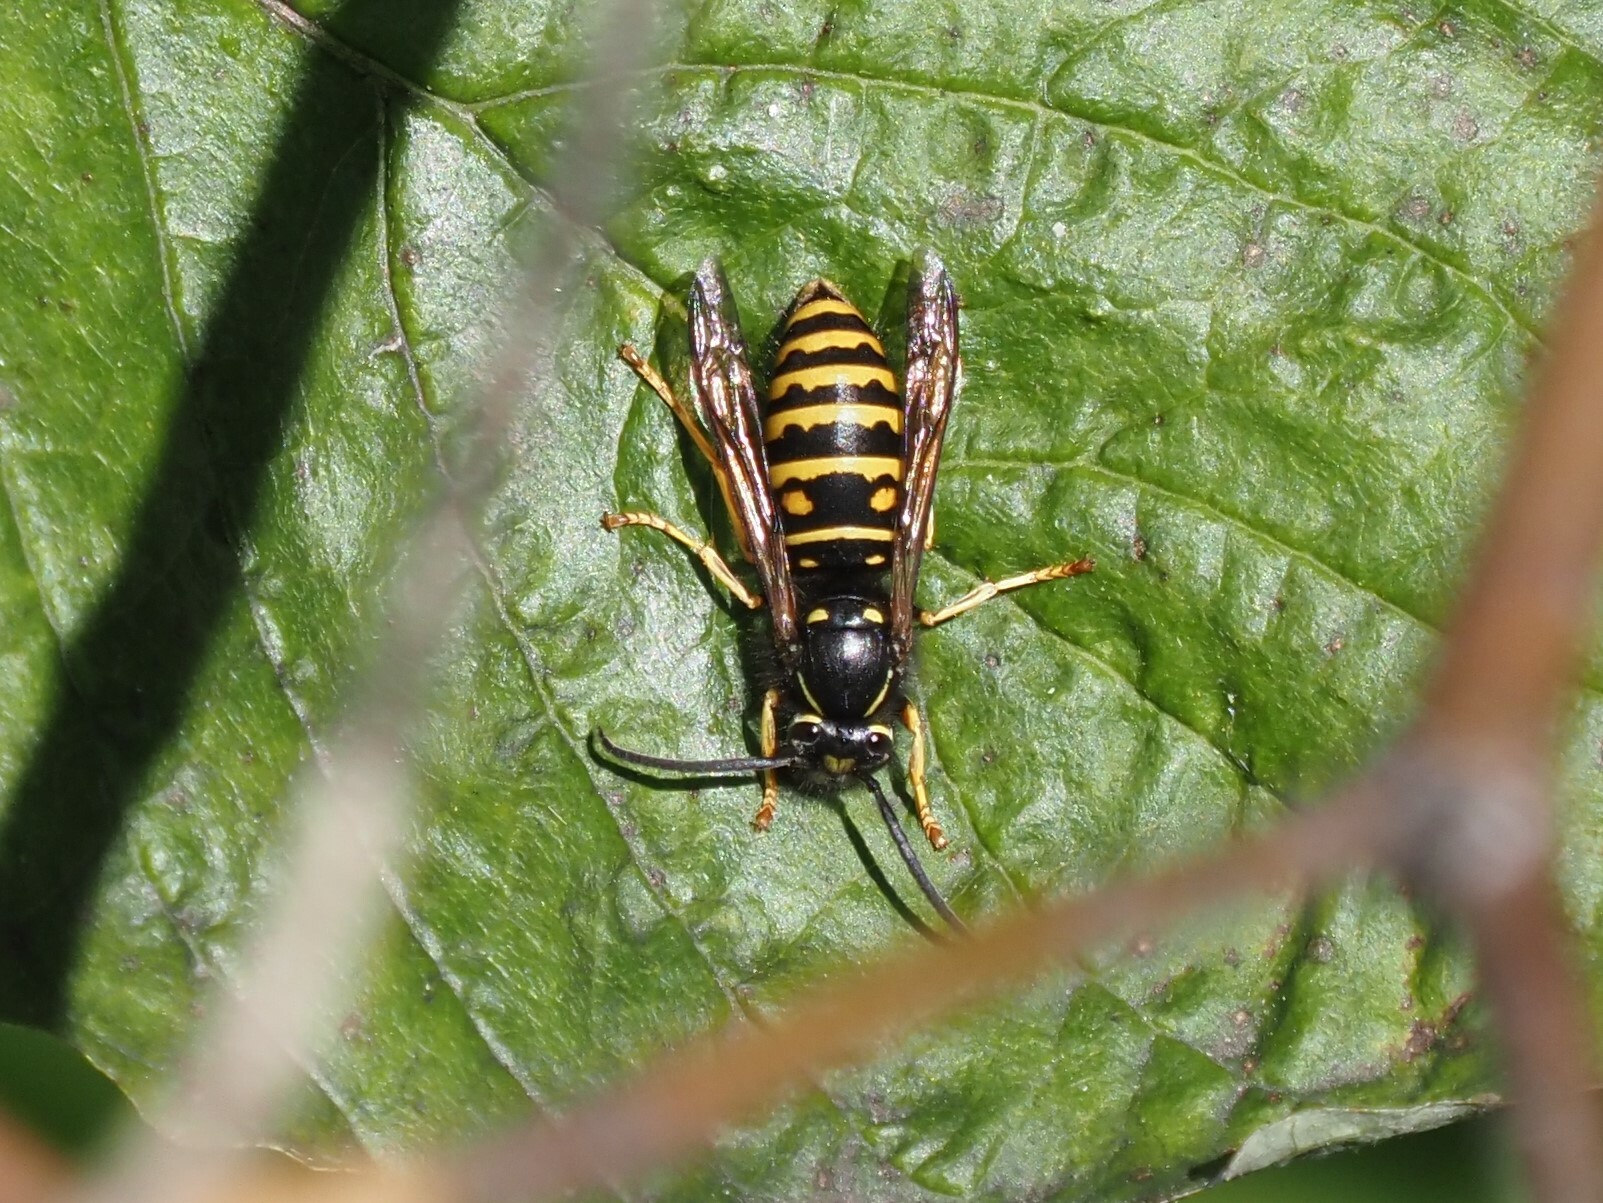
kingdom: Animalia
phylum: Arthropoda
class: Insecta
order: Hymenoptera
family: Vespidae
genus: Vespula
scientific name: Vespula acadica
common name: Forest yellowjacket
